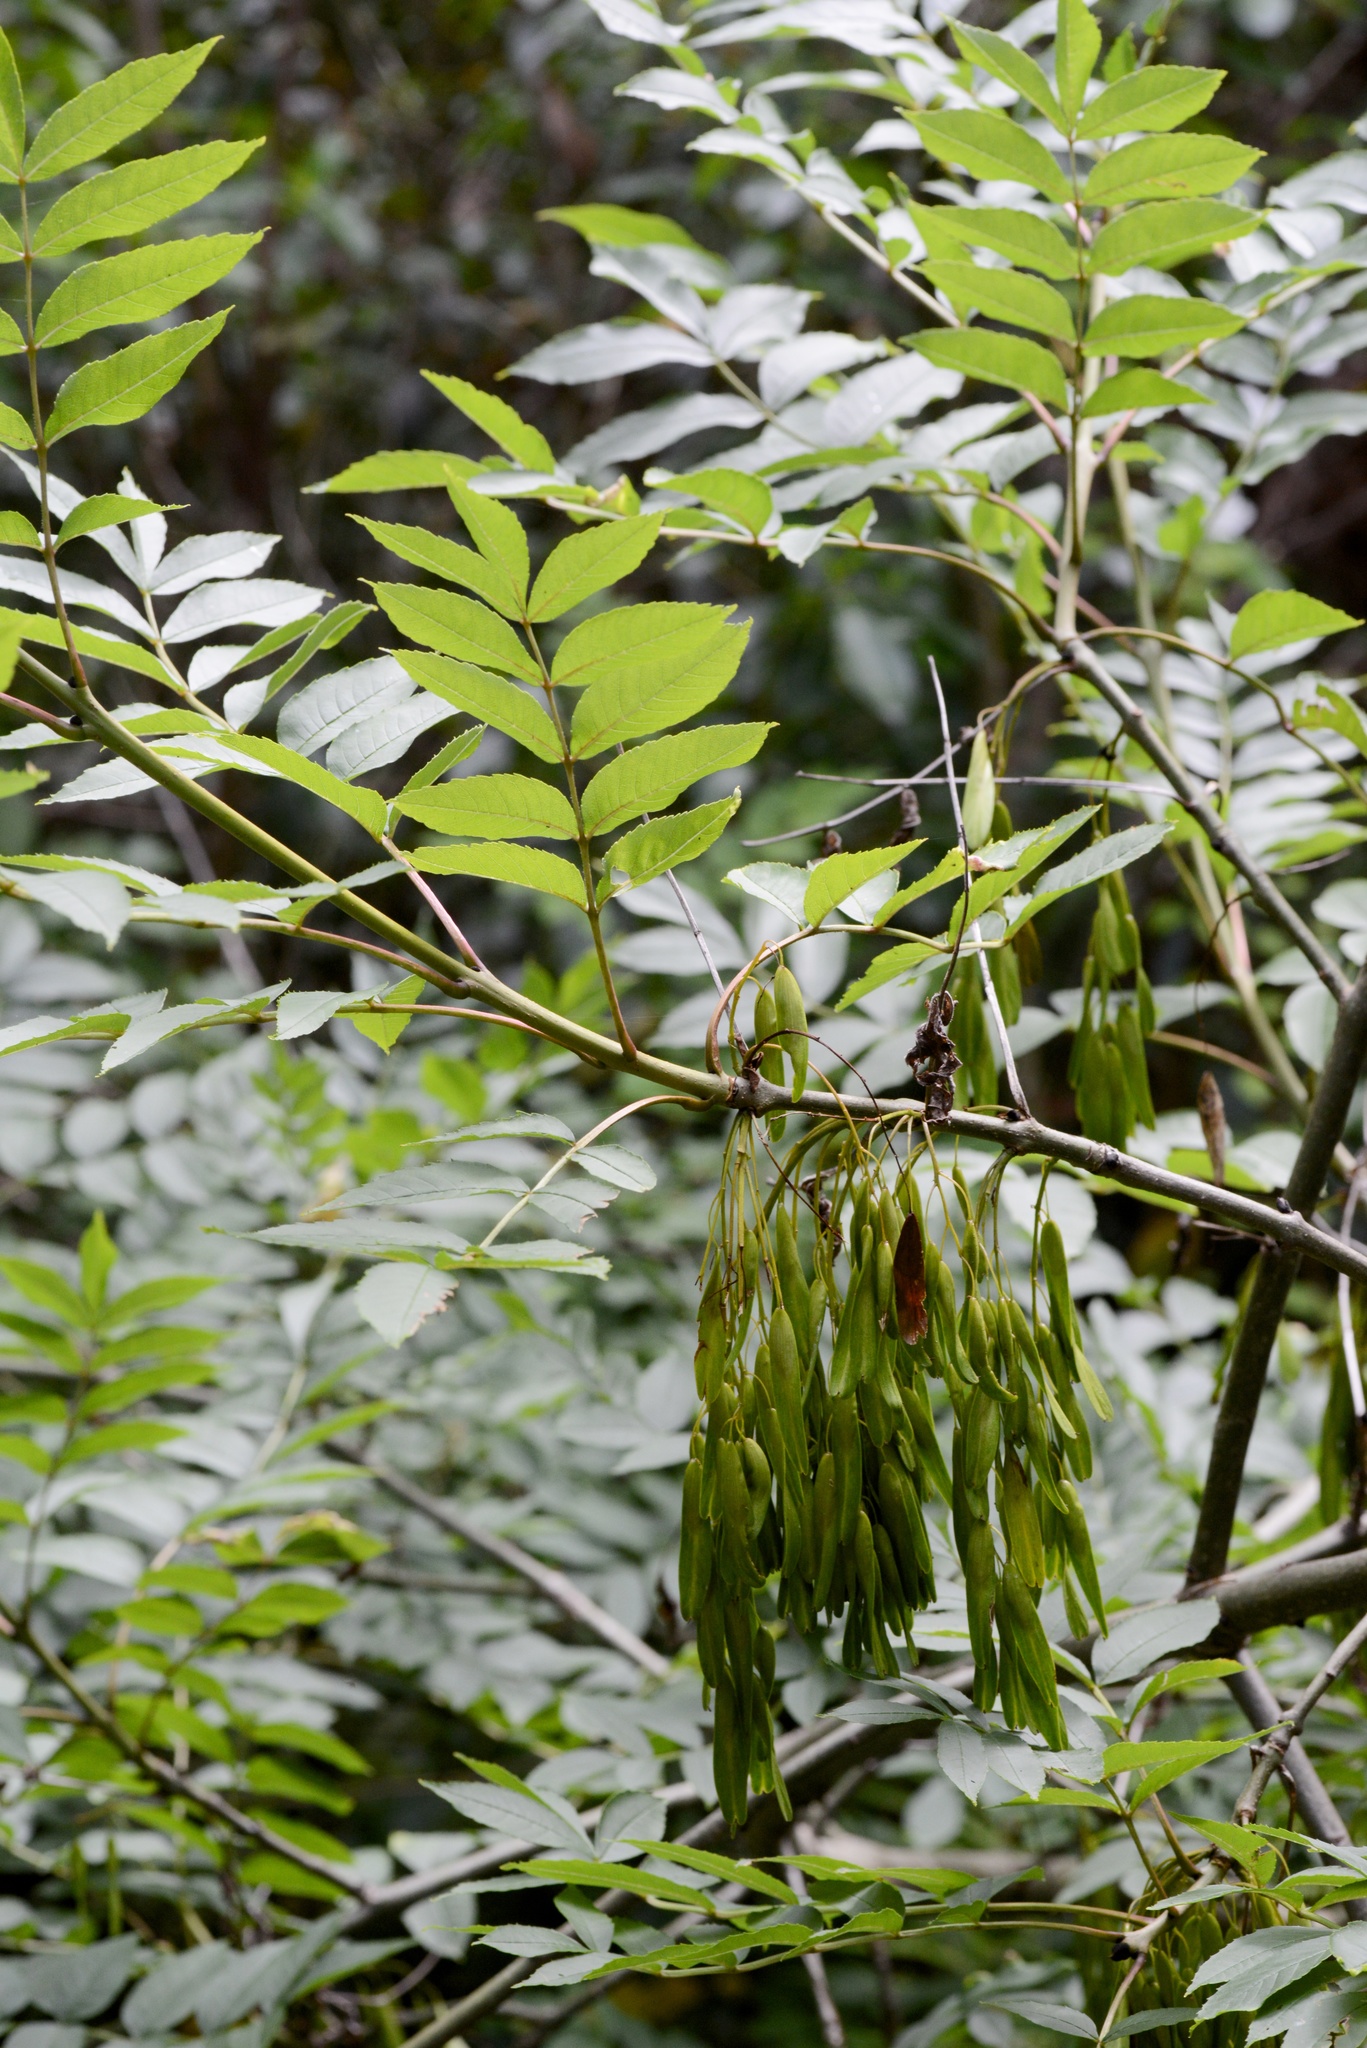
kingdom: Plantae
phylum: Tracheophyta
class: Magnoliopsida
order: Lamiales
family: Oleaceae
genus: Fraxinus
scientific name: Fraxinus excelsior
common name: European ash
